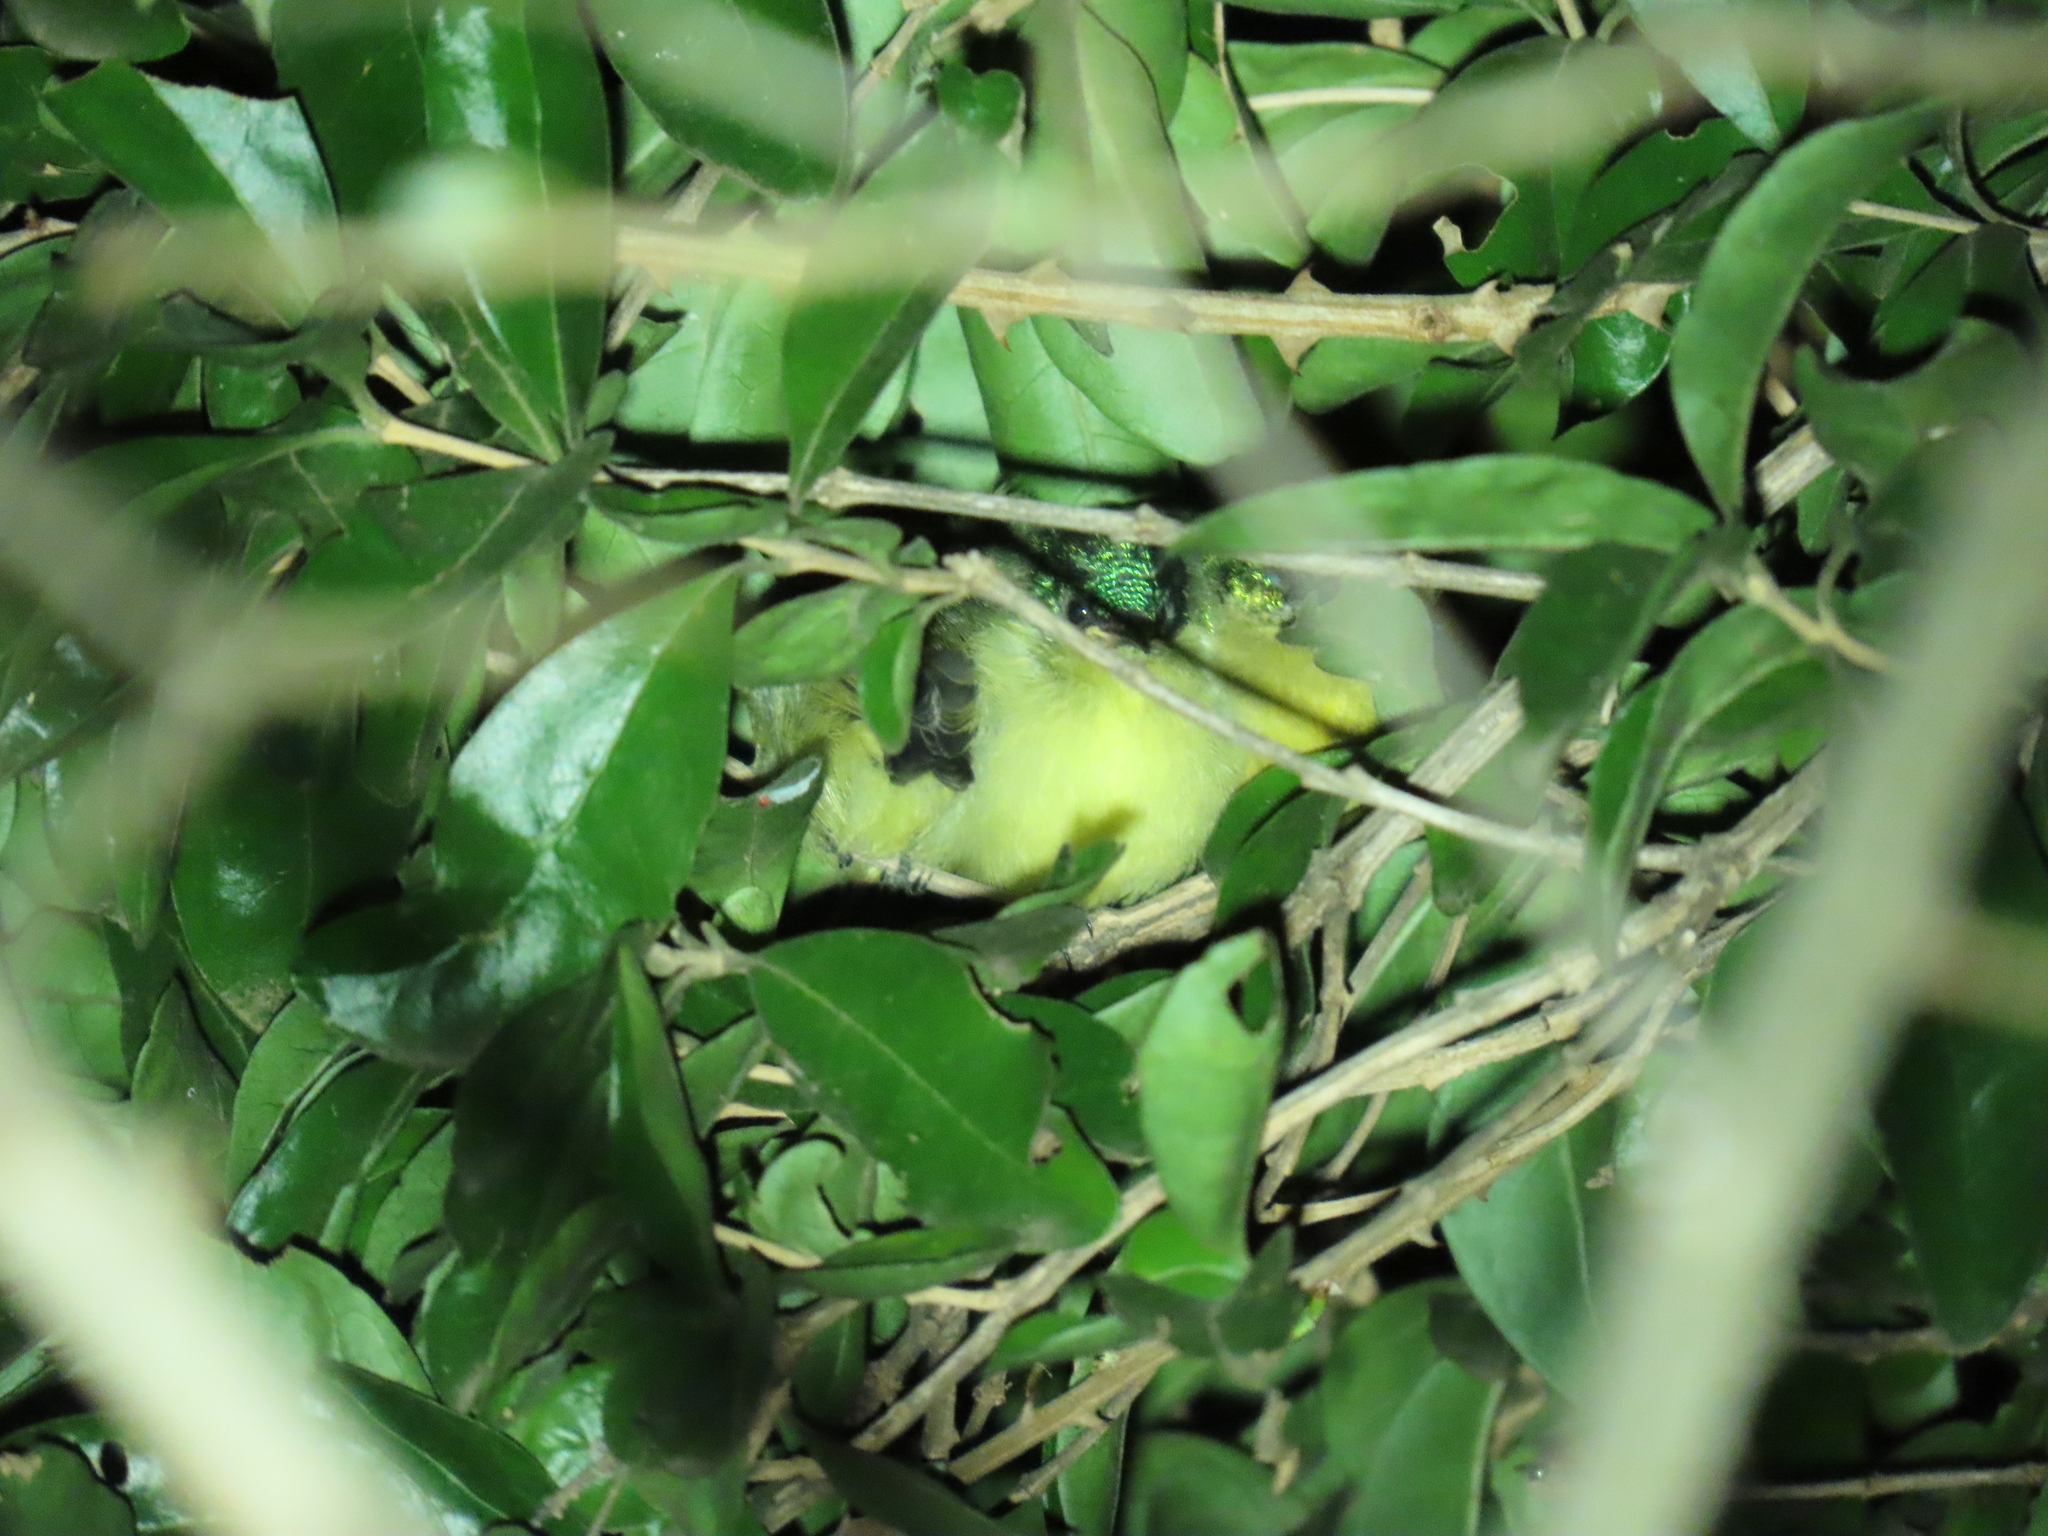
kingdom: Animalia
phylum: Chordata
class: Aves
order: Passeriformes
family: Nectariniidae
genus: Hedydipna
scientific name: Hedydipna collaris
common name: Collared sunbird
